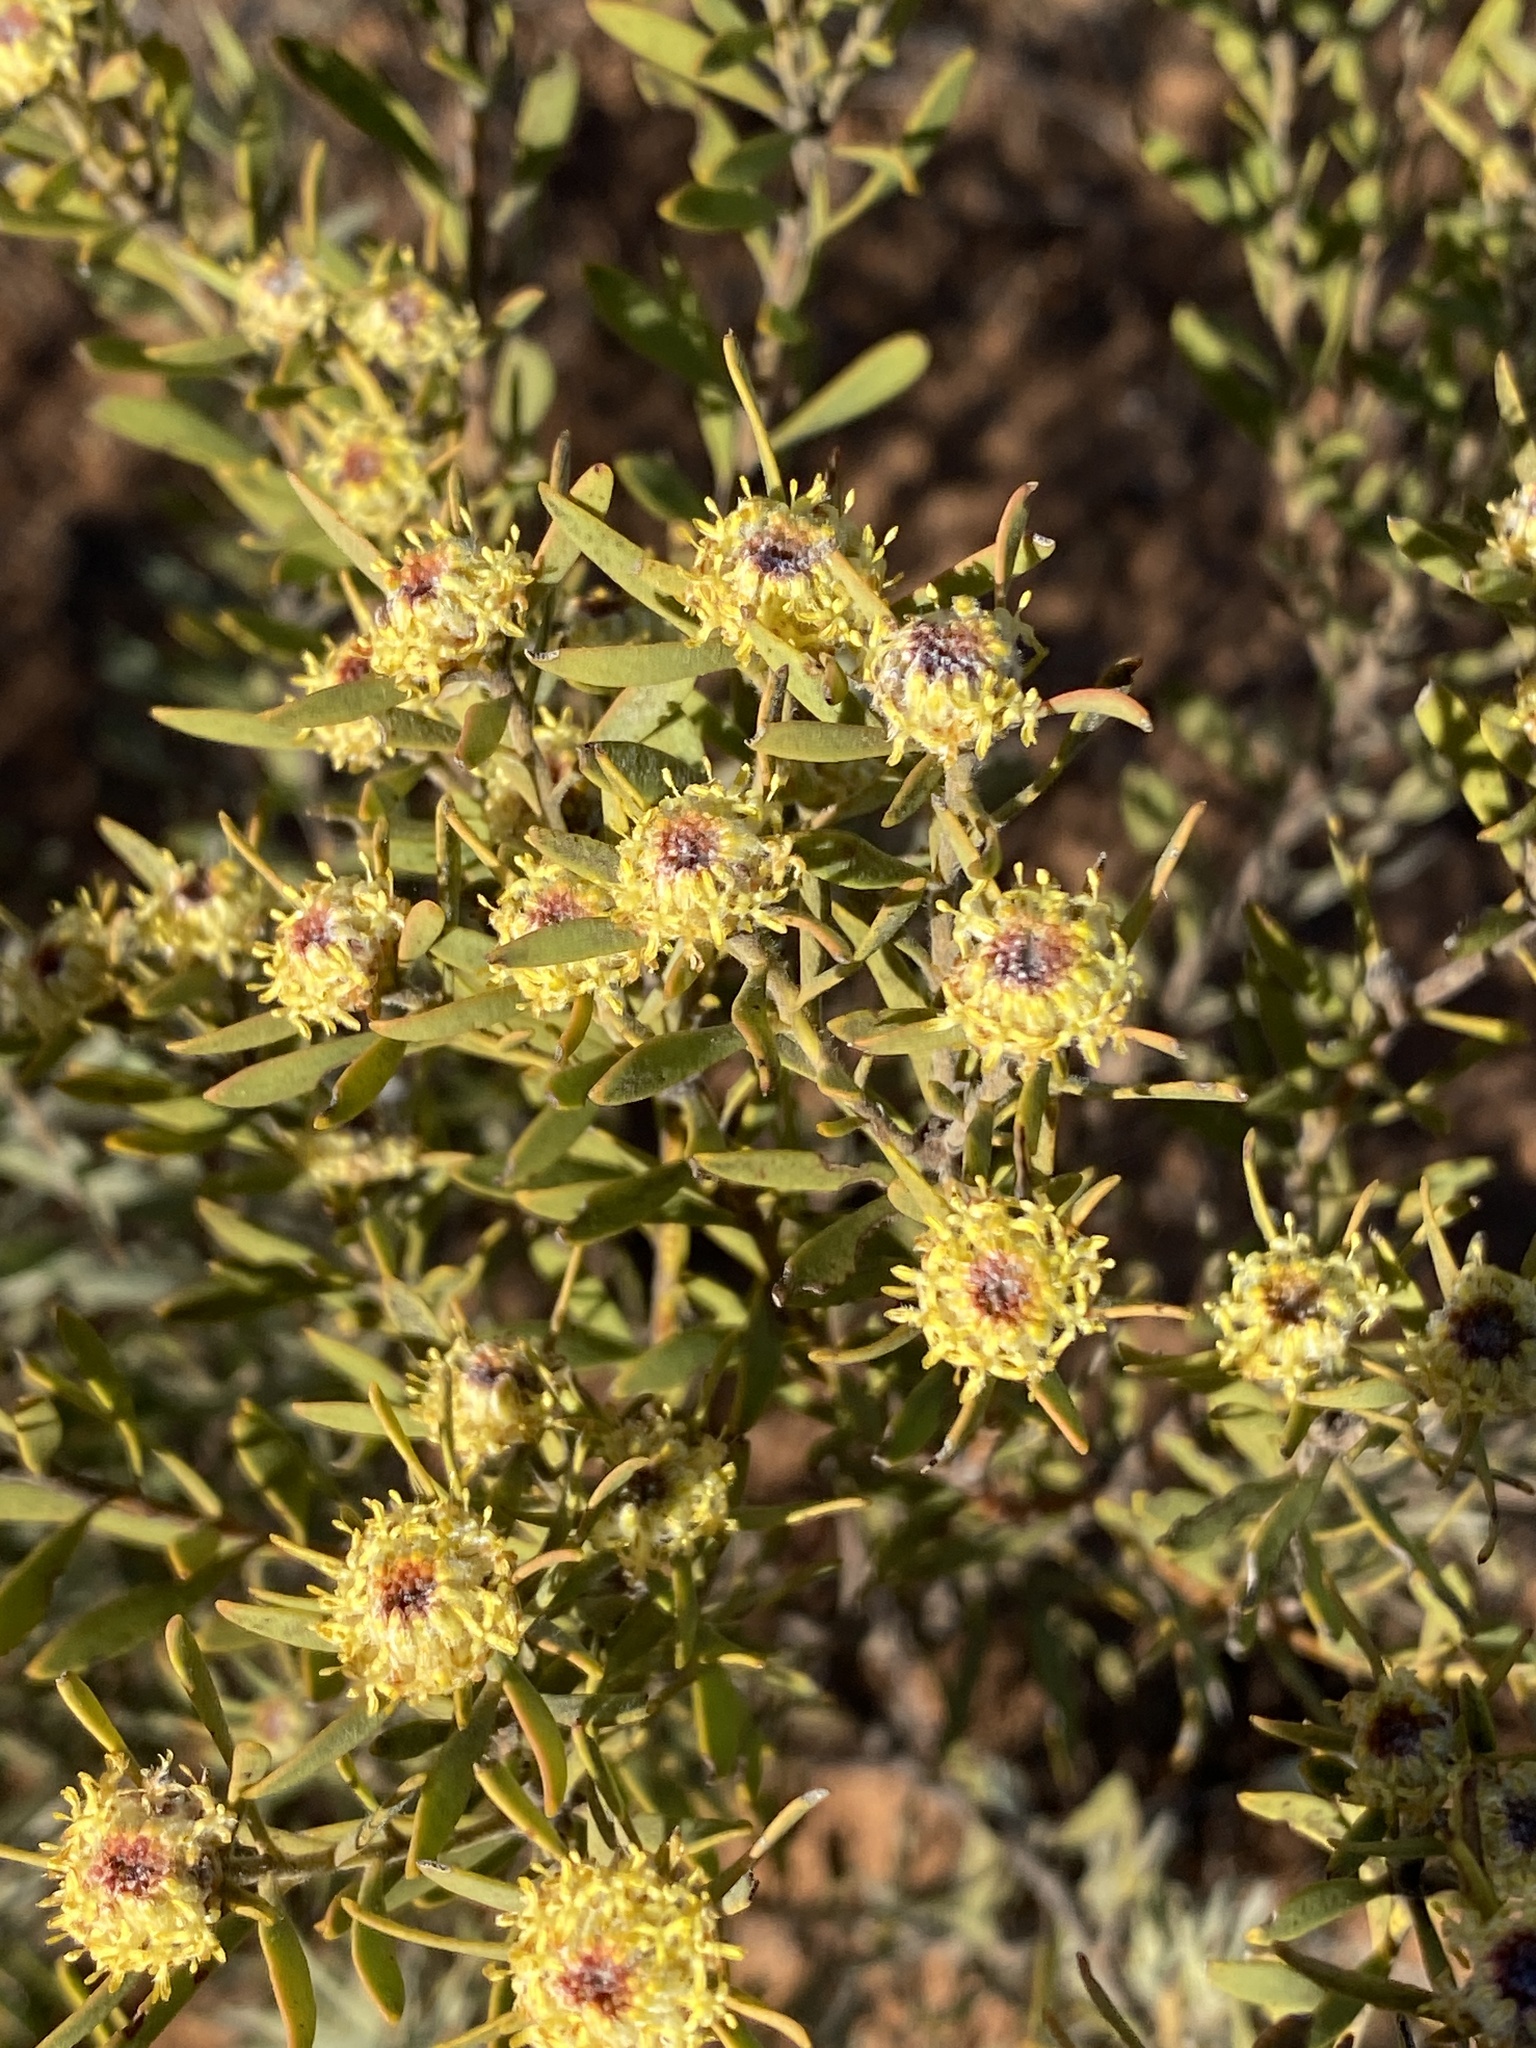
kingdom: Plantae
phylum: Tracheophyta
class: Magnoliopsida
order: Proteales
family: Proteaceae
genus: Leucadendron
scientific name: Leucadendron pubescens
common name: Grey conebush
